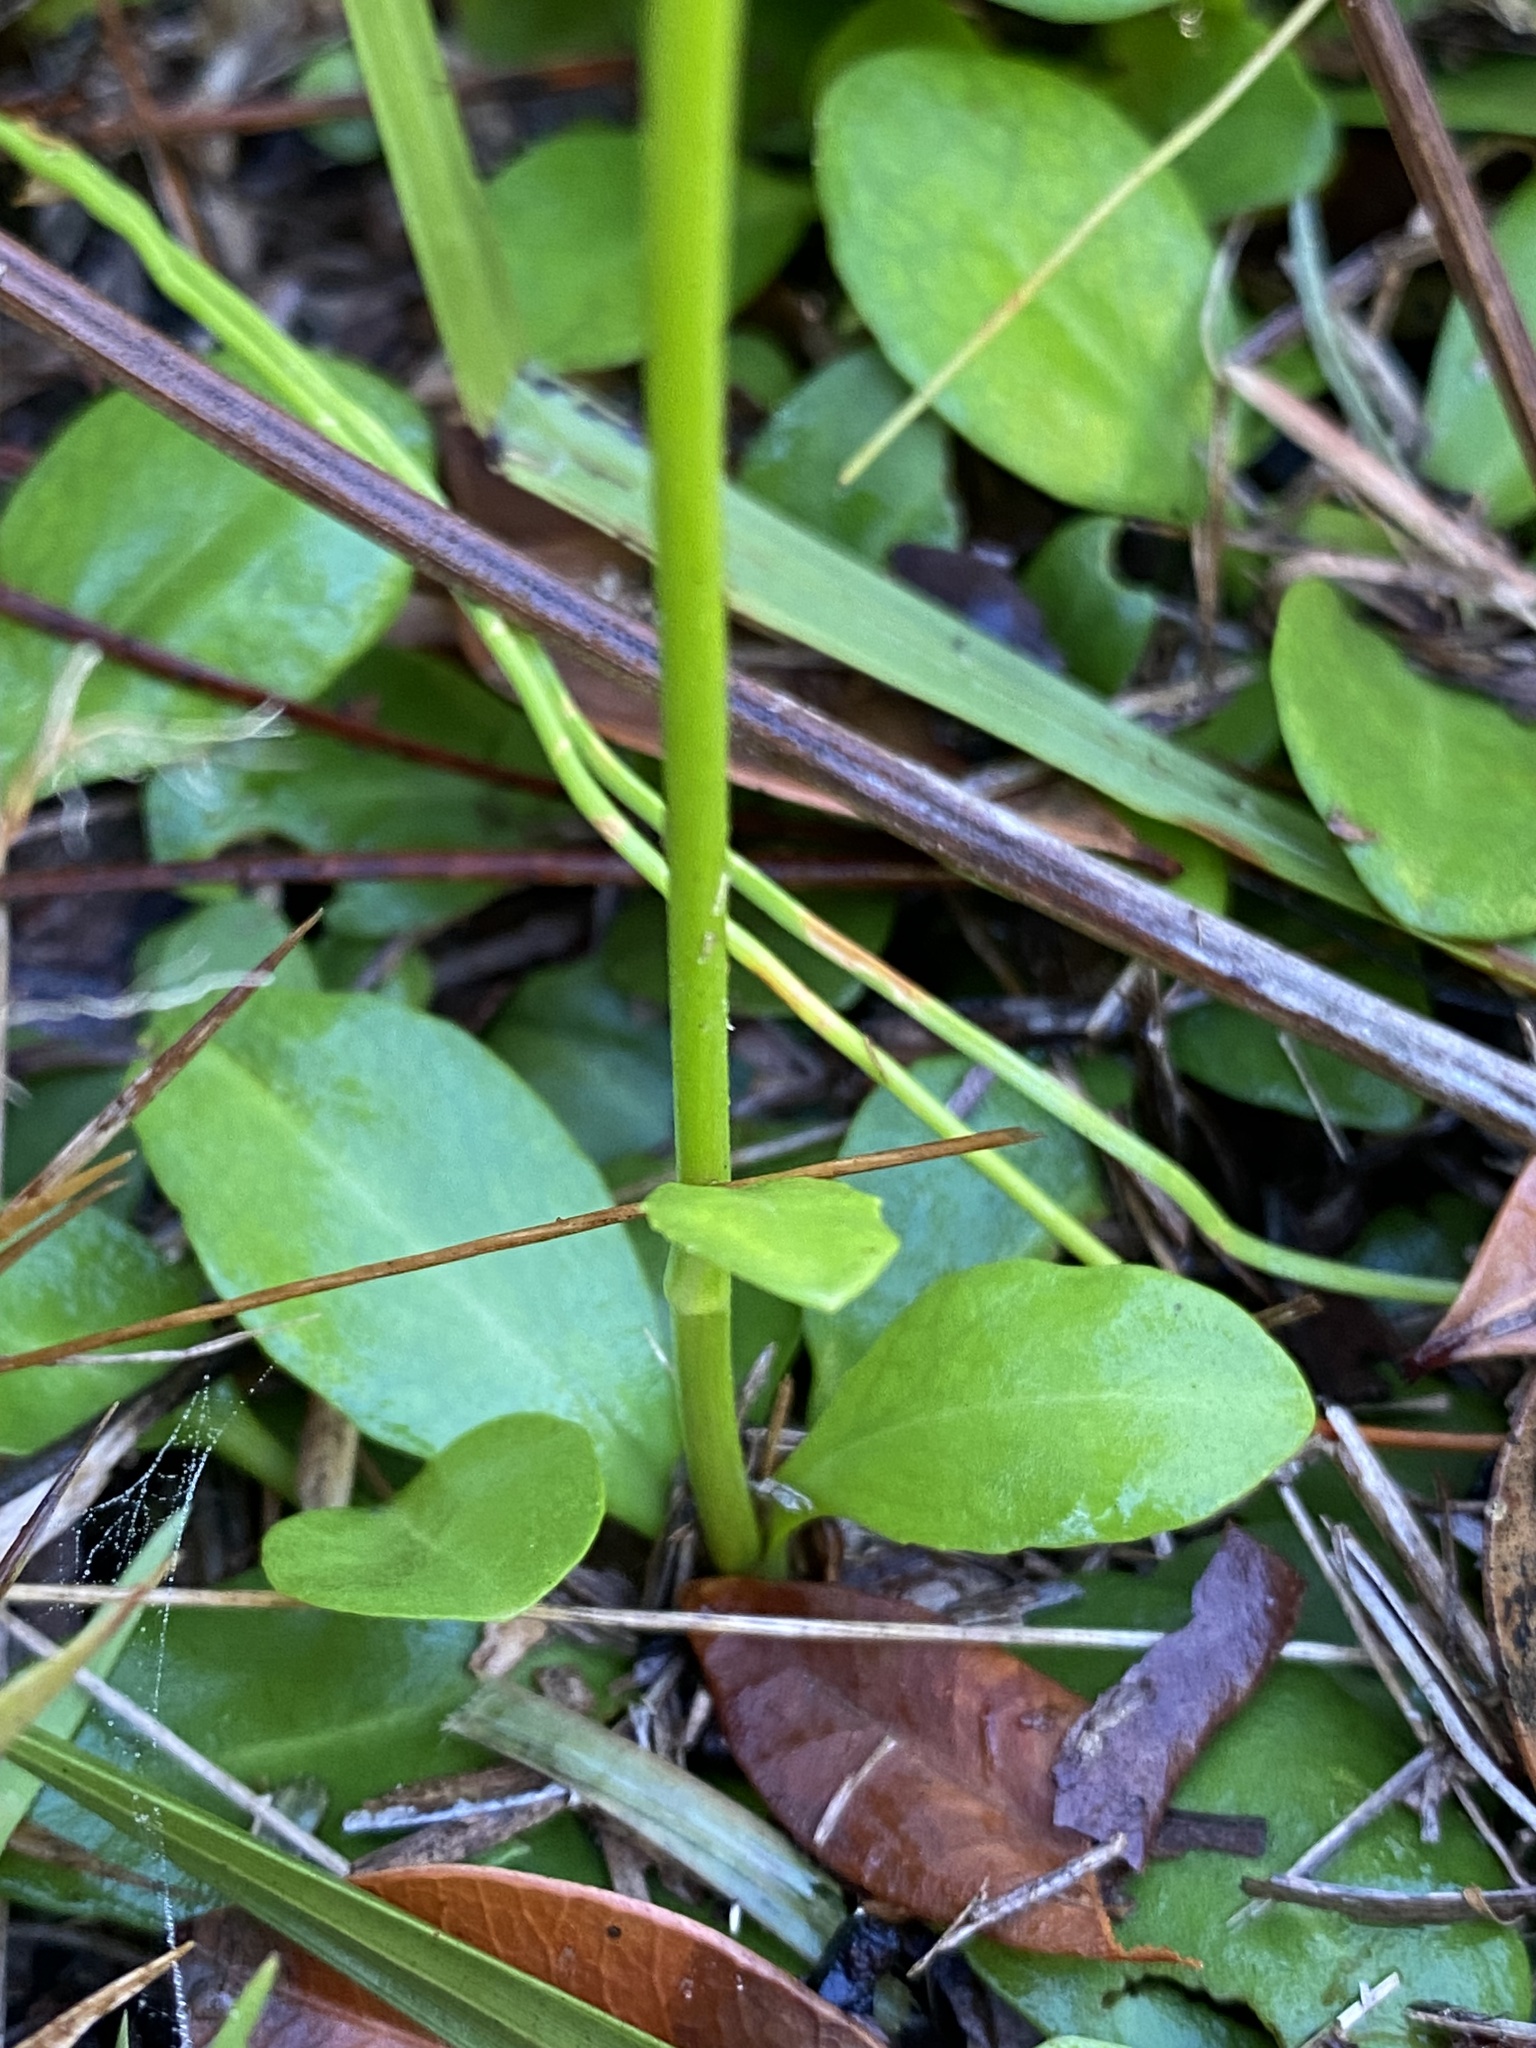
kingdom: Plantae
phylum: Tracheophyta
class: Magnoliopsida
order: Asterales
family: Asteraceae
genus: Erigeron
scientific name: Erigeron vernus
